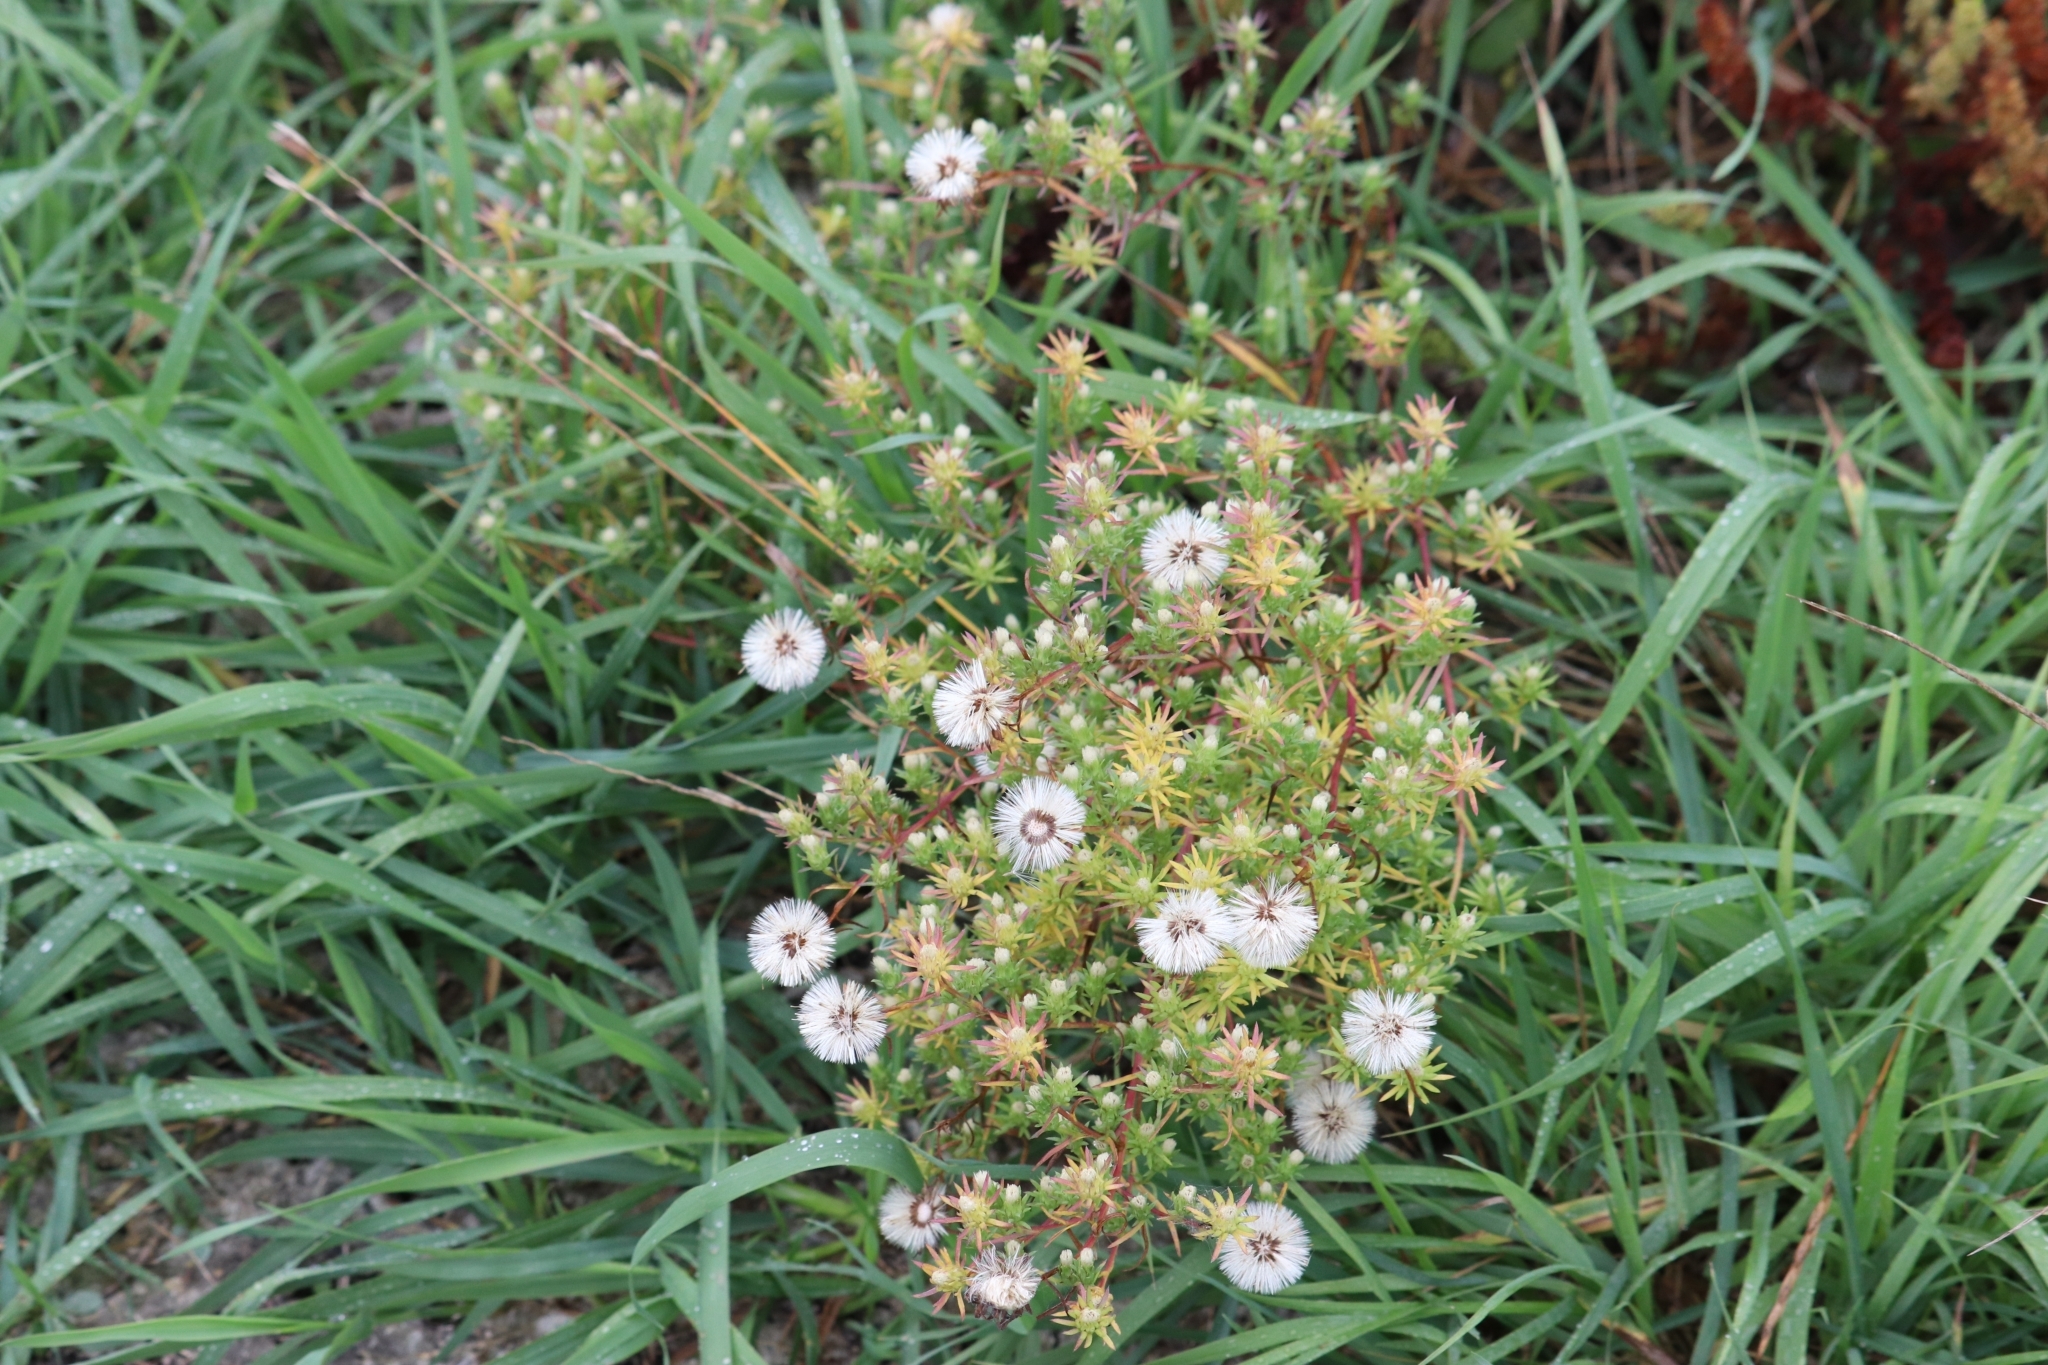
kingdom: Plantae
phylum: Tracheophyta
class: Magnoliopsida
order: Asterales
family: Asteraceae
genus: Symphyotrichum
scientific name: Symphyotrichum ciliatum
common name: Rayless annual aster
